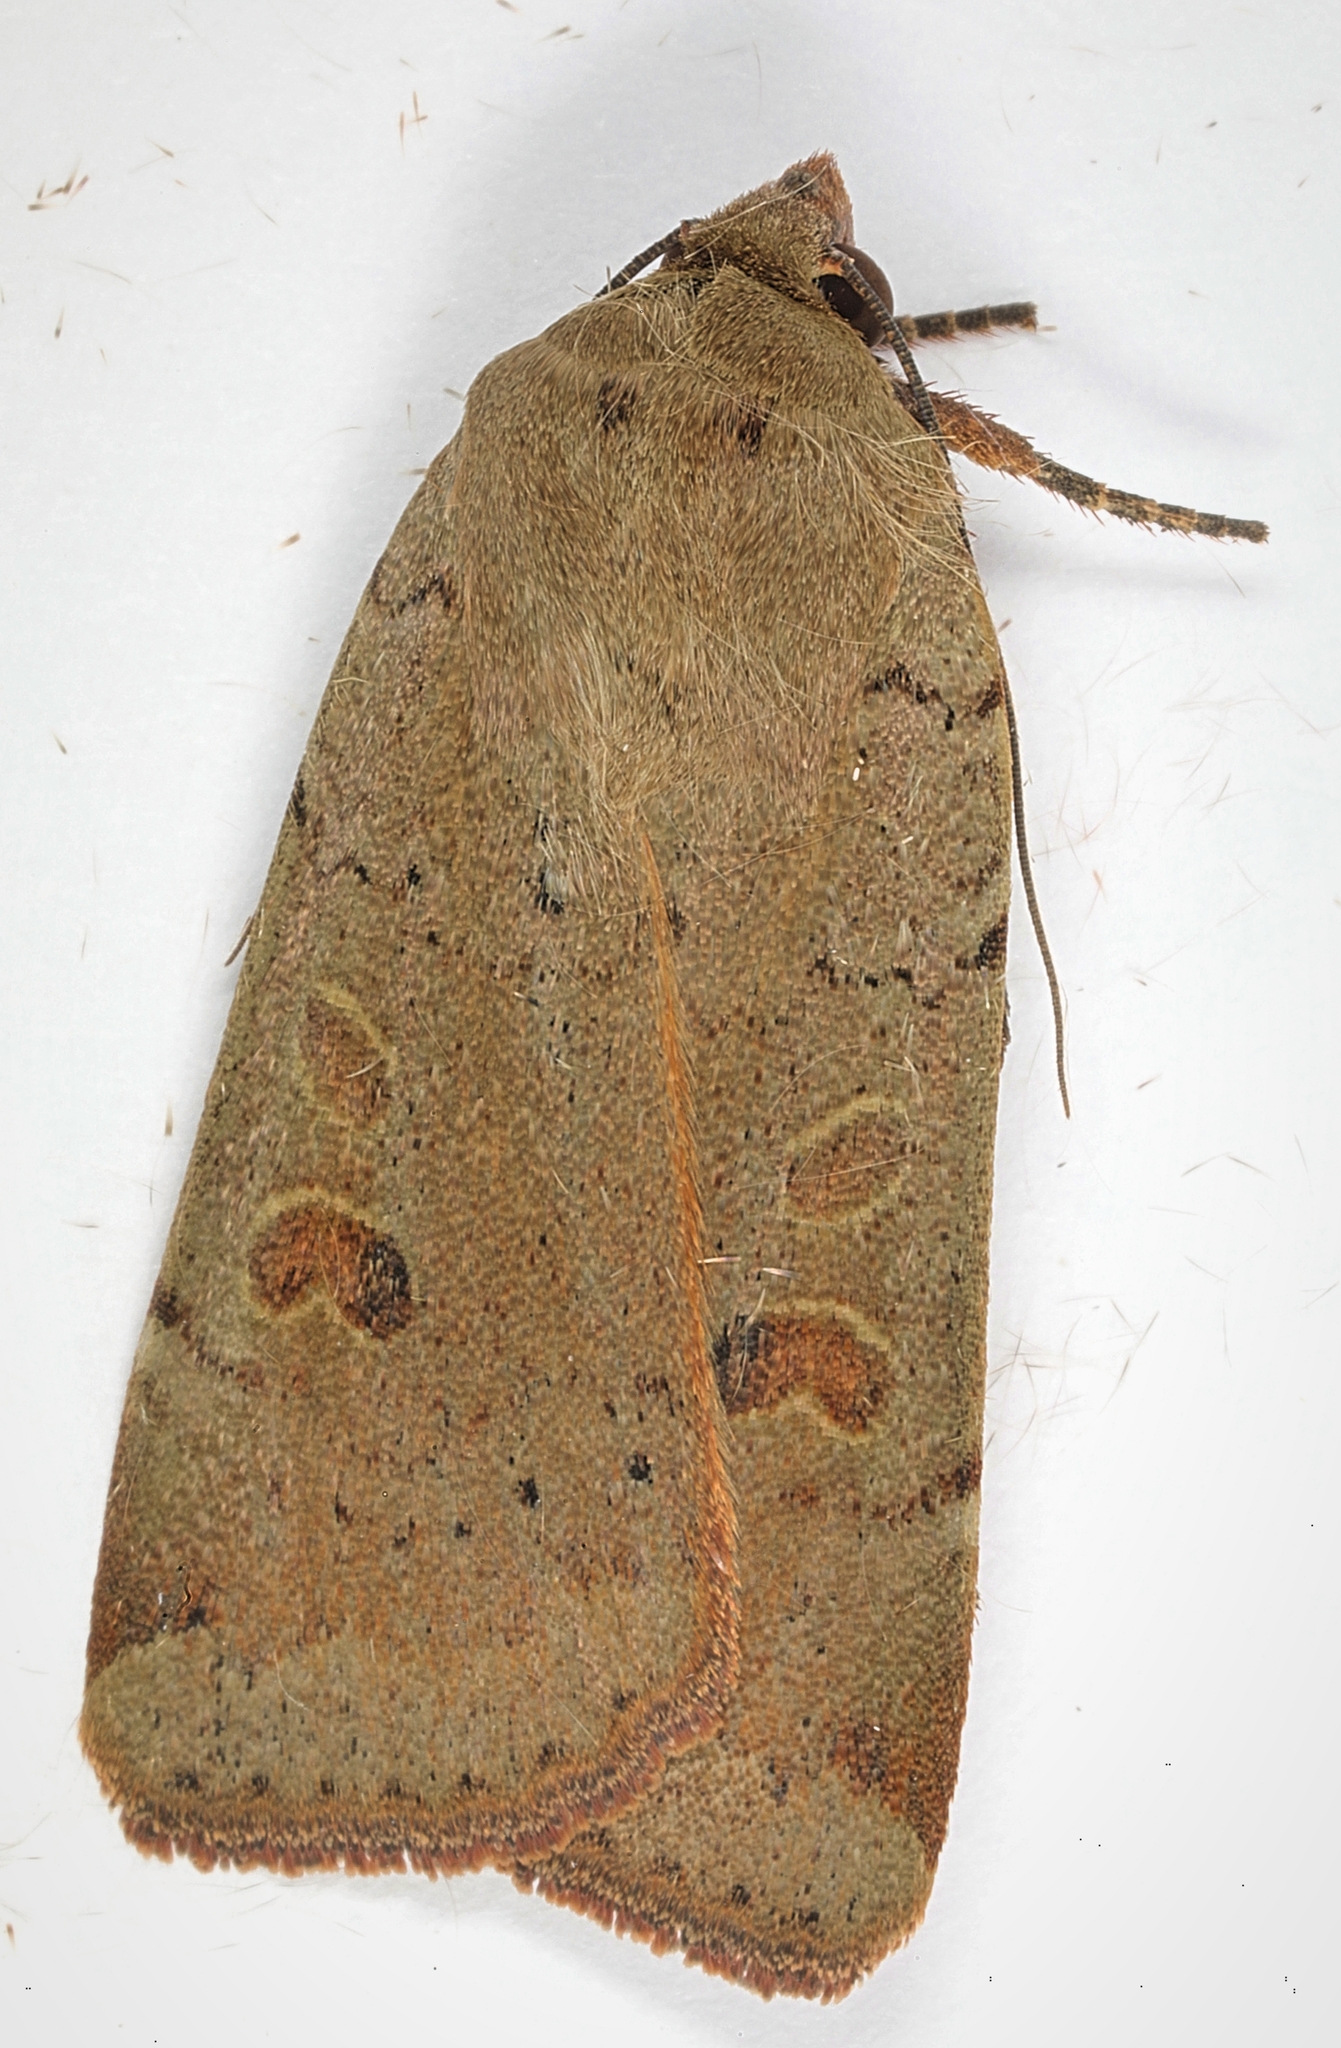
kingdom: Animalia
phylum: Arthropoda
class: Insecta
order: Lepidoptera
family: Noctuidae
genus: Noctua
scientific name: Noctua comes
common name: Lesser yellow underwing
